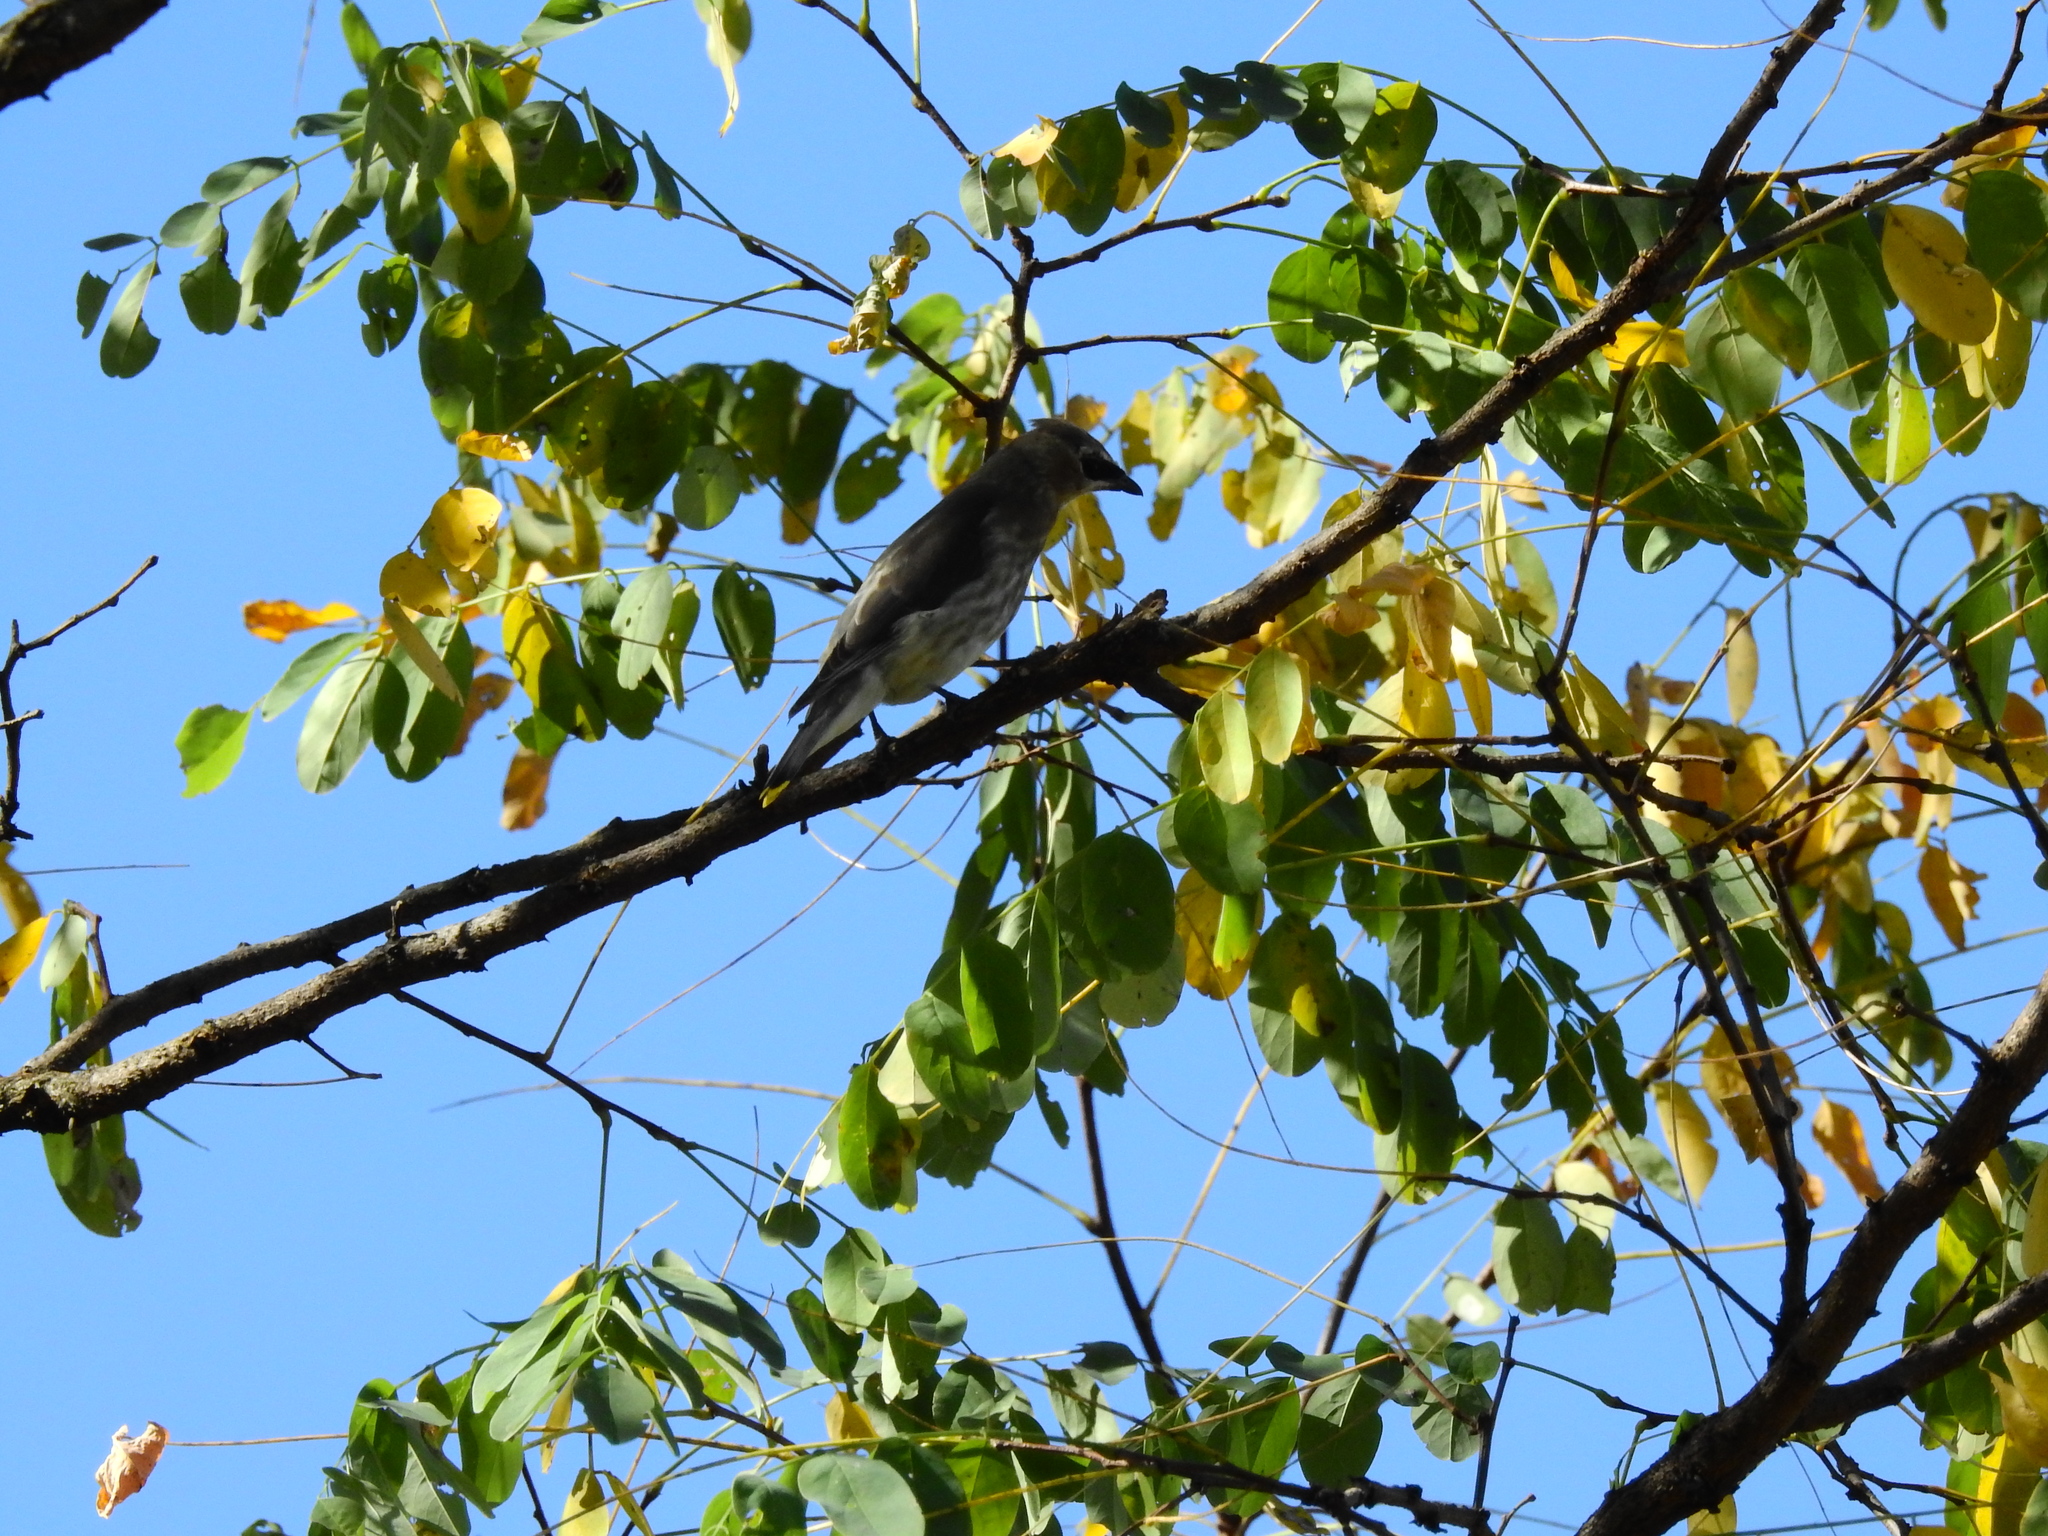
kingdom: Animalia
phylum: Chordata
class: Aves
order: Passeriformes
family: Bombycillidae
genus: Bombycilla
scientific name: Bombycilla cedrorum
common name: Cedar waxwing
